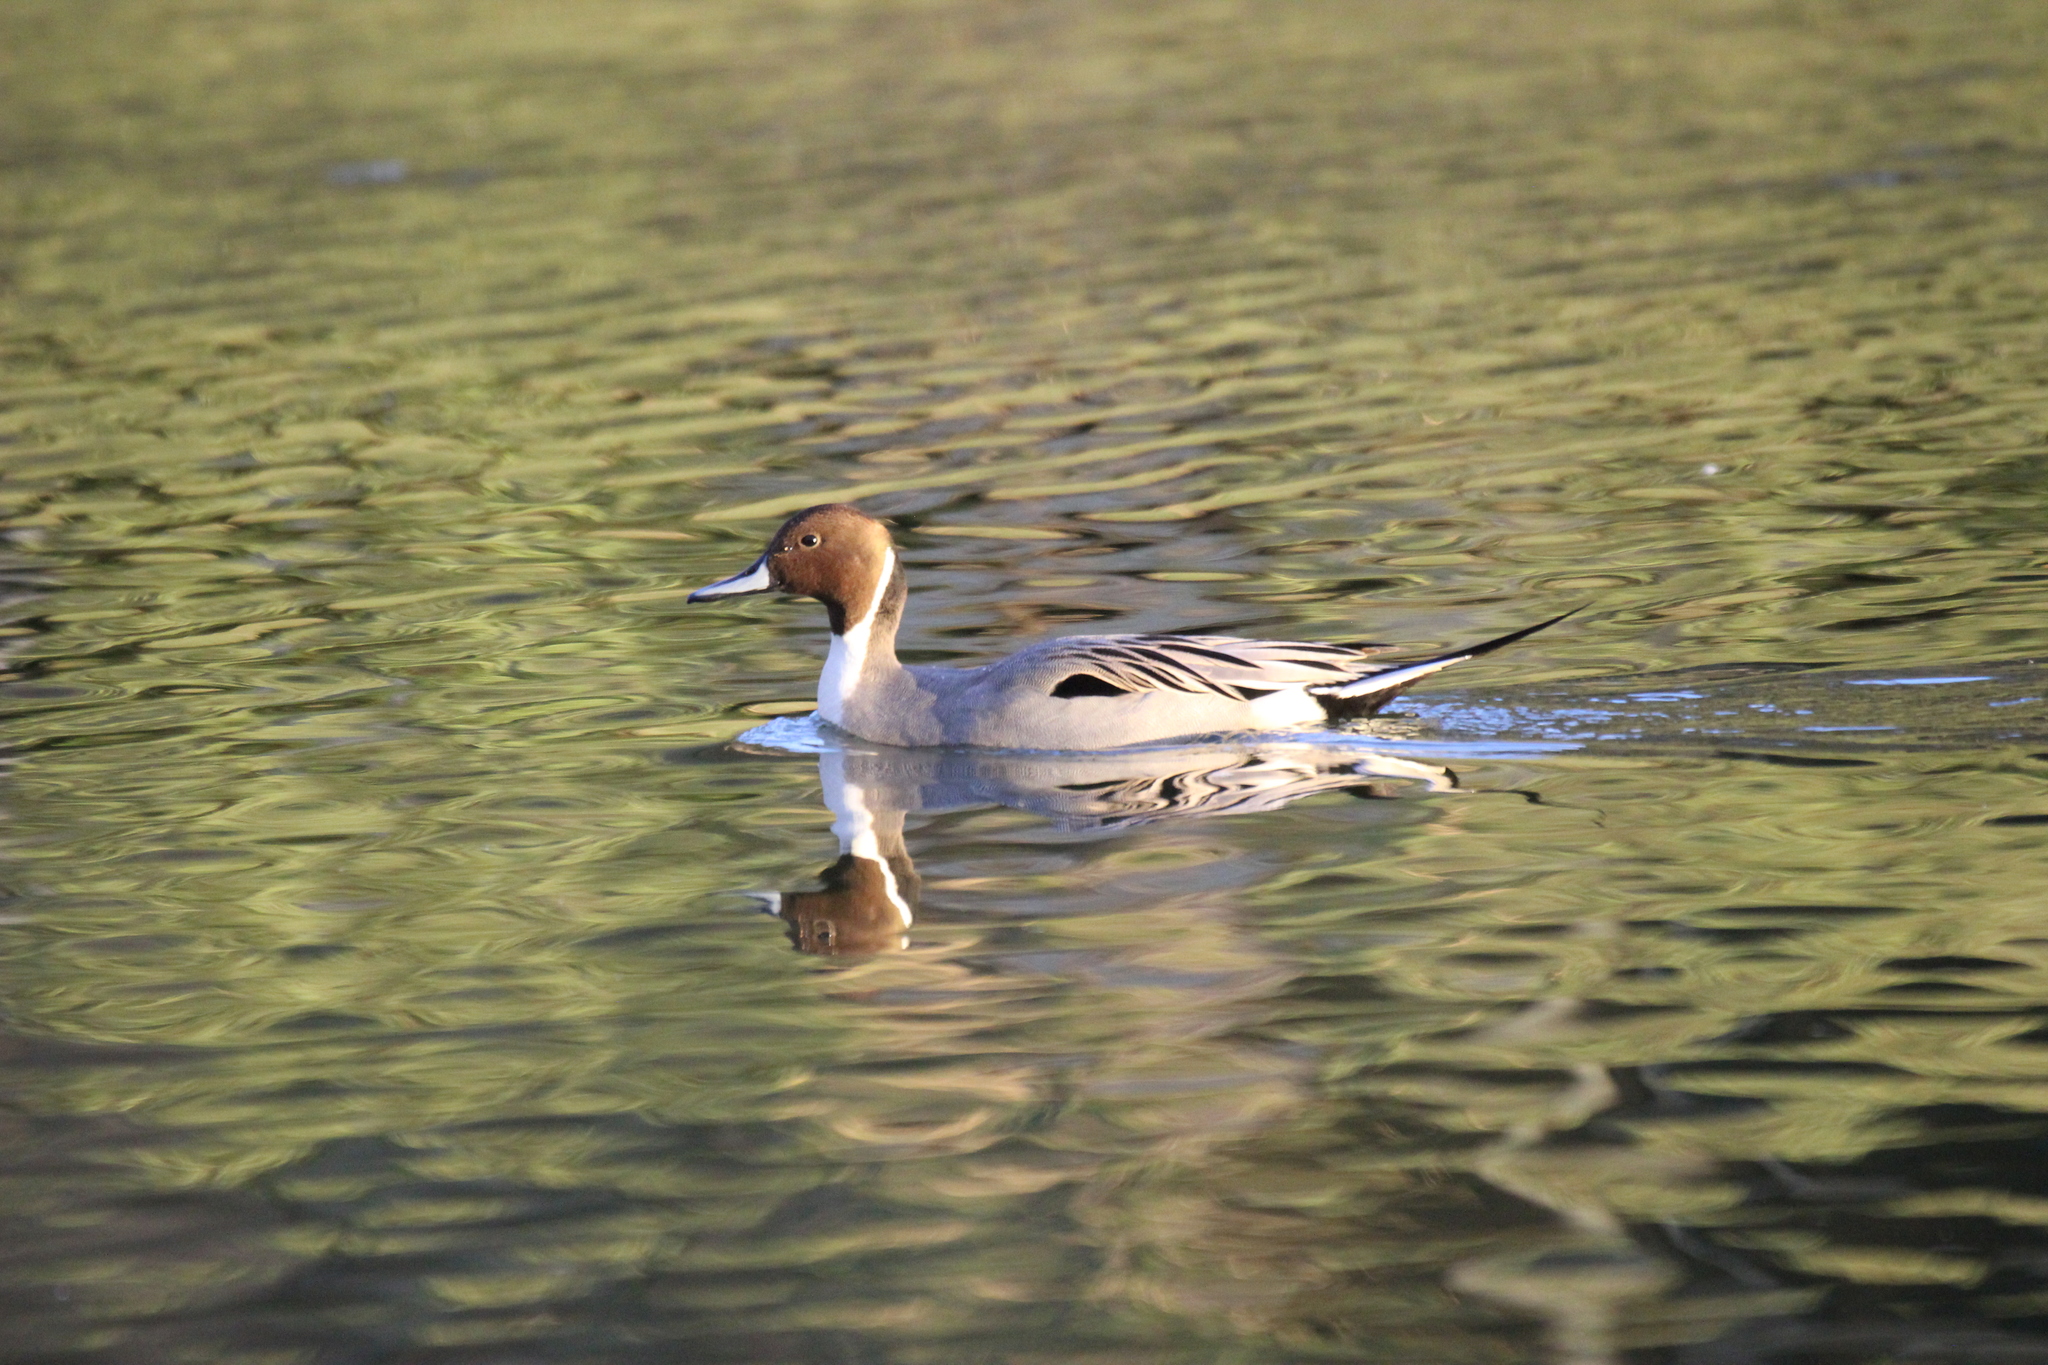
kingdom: Animalia
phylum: Chordata
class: Aves
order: Anseriformes
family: Anatidae
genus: Anas
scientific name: Anas acuta
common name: Northern pintail
